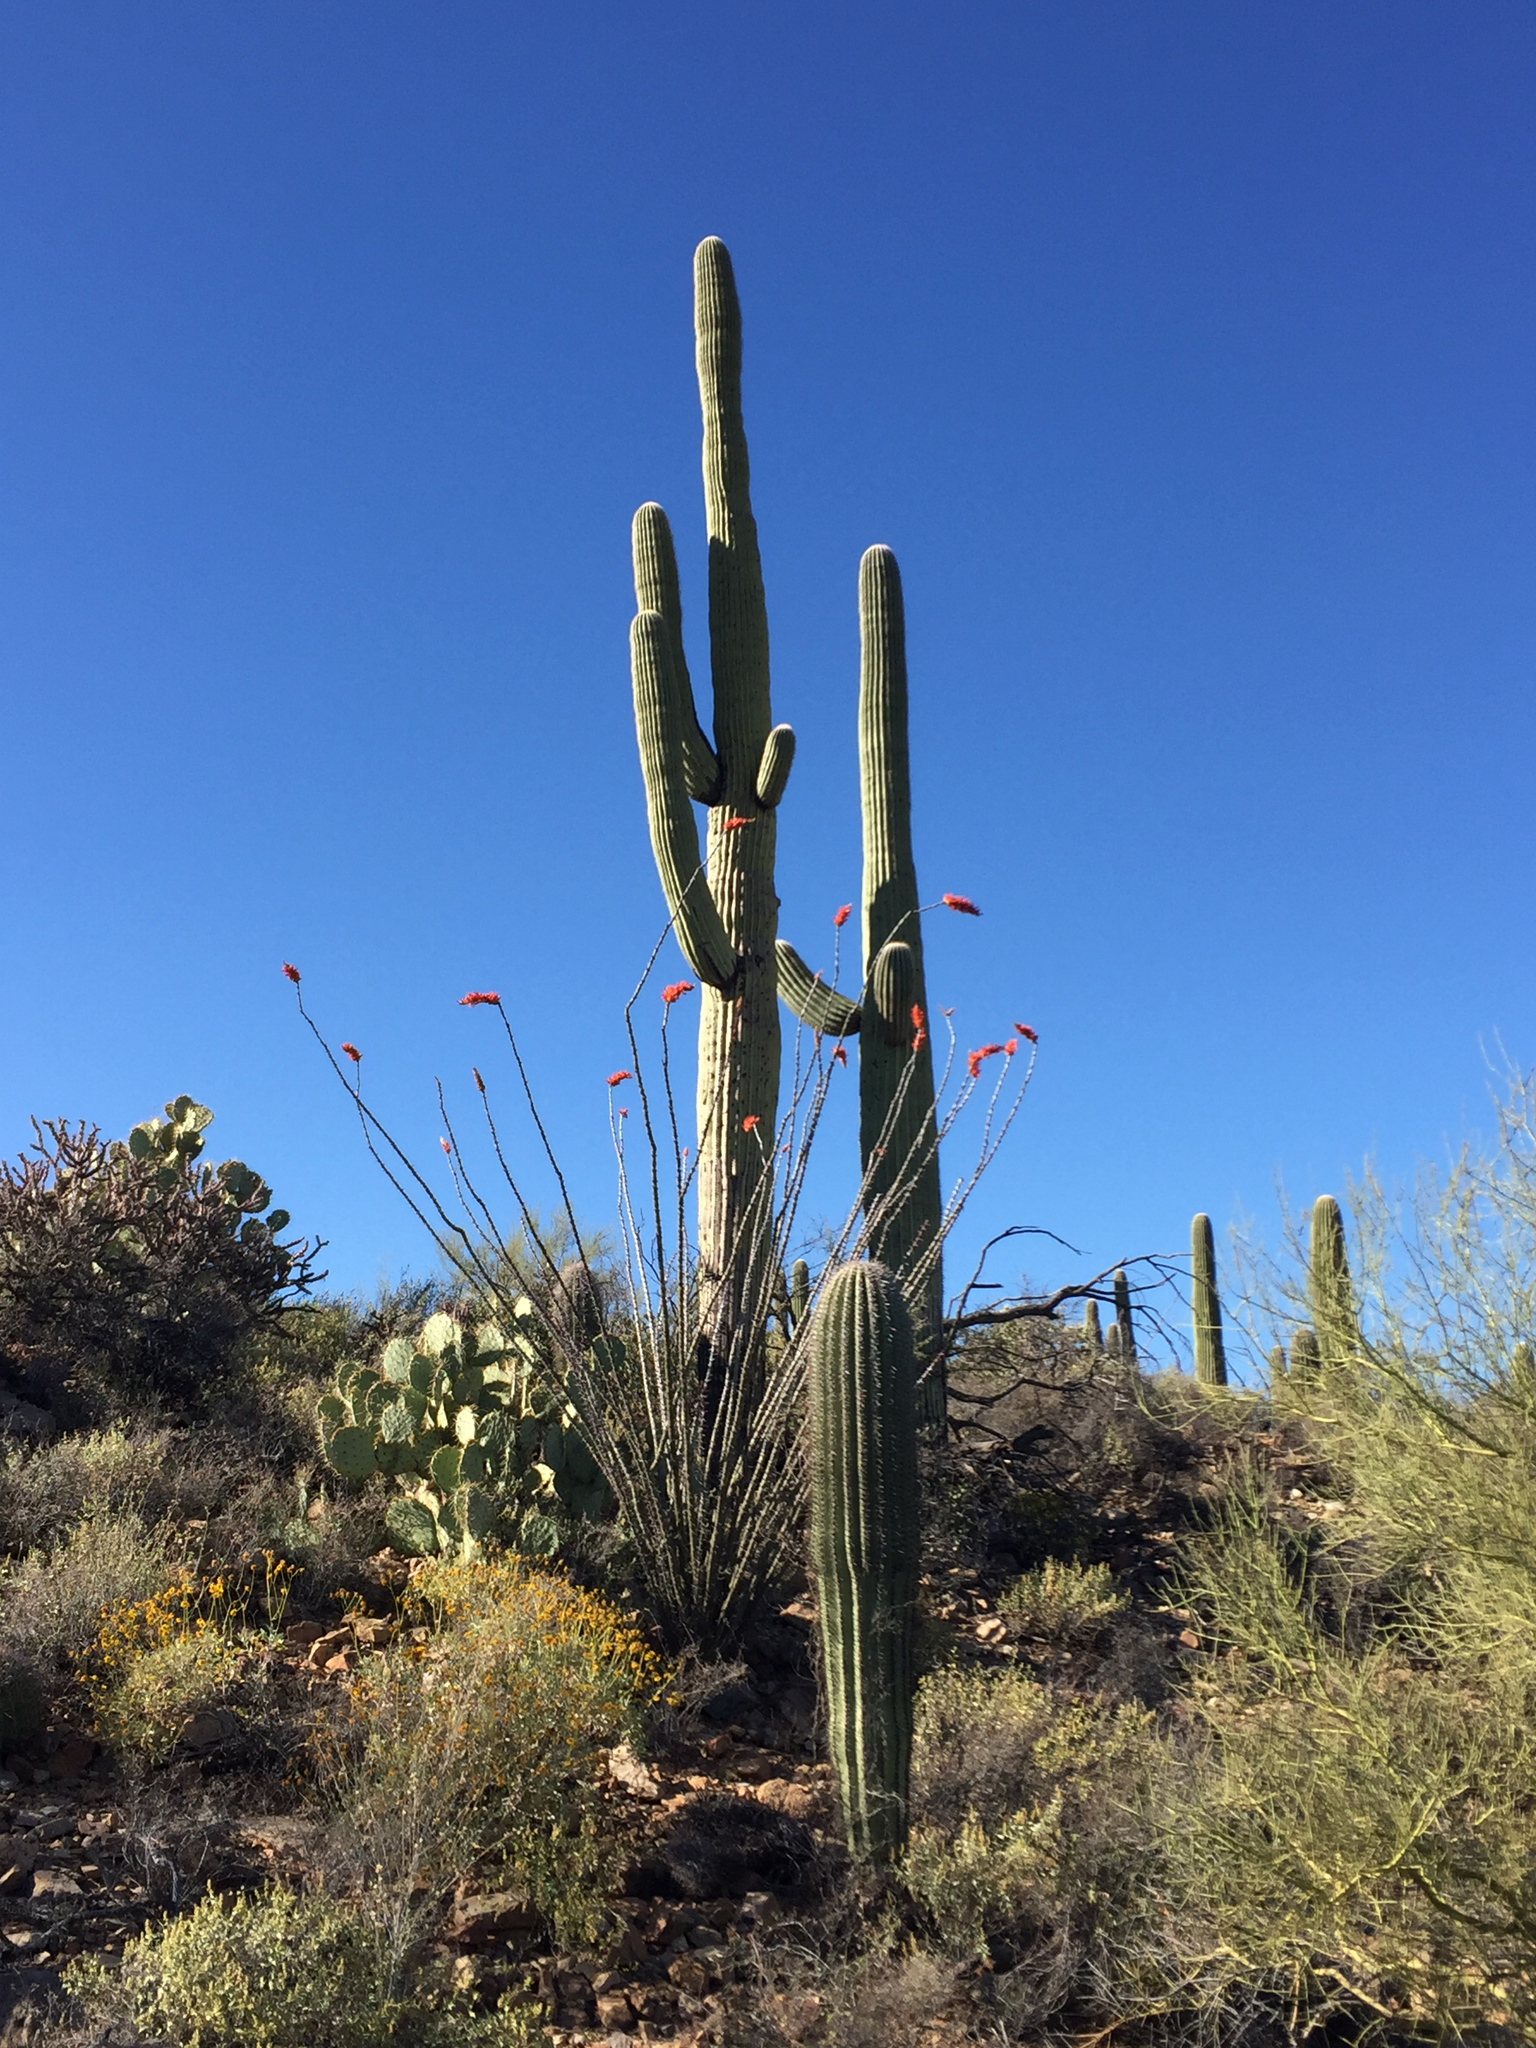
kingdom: Plantae
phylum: Tracheophyta
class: Magnoliopsida
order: Ericales
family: Fouquieriaceae
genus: Fouquieria
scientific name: Fouquieria splendens
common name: Vine-cactus
